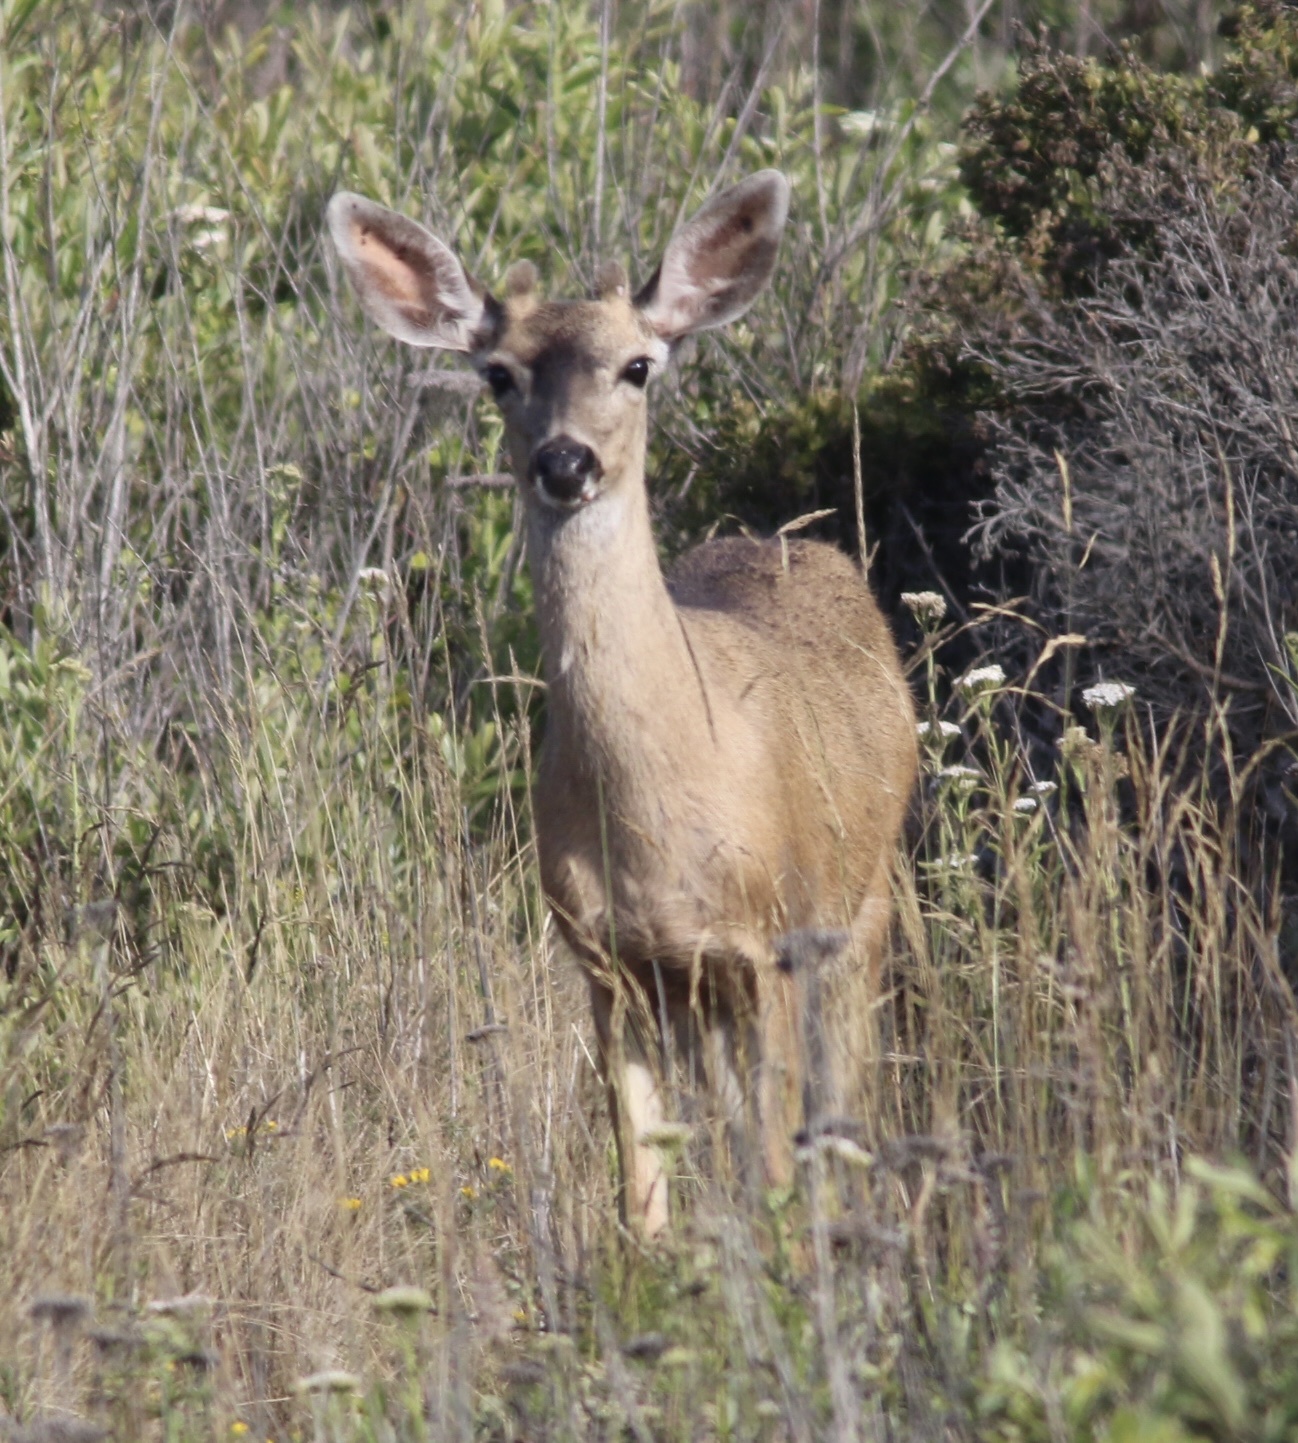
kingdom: Animalia
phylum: Chordata
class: Mammalia
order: Artiodactyla
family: Cervidae
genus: Odocoileus
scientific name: Odocoileus hemionus
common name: Mule deer
